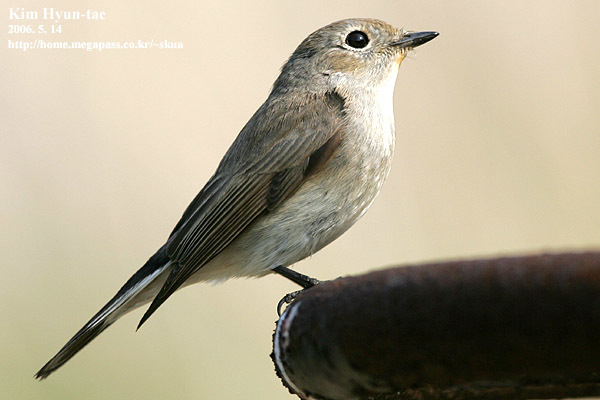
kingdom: Animalia
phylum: Chordata
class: Aves
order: Passeriformes
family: Muscicapidae
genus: Ficedula
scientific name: Ficedula albicilla
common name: Taiga flycatcher
